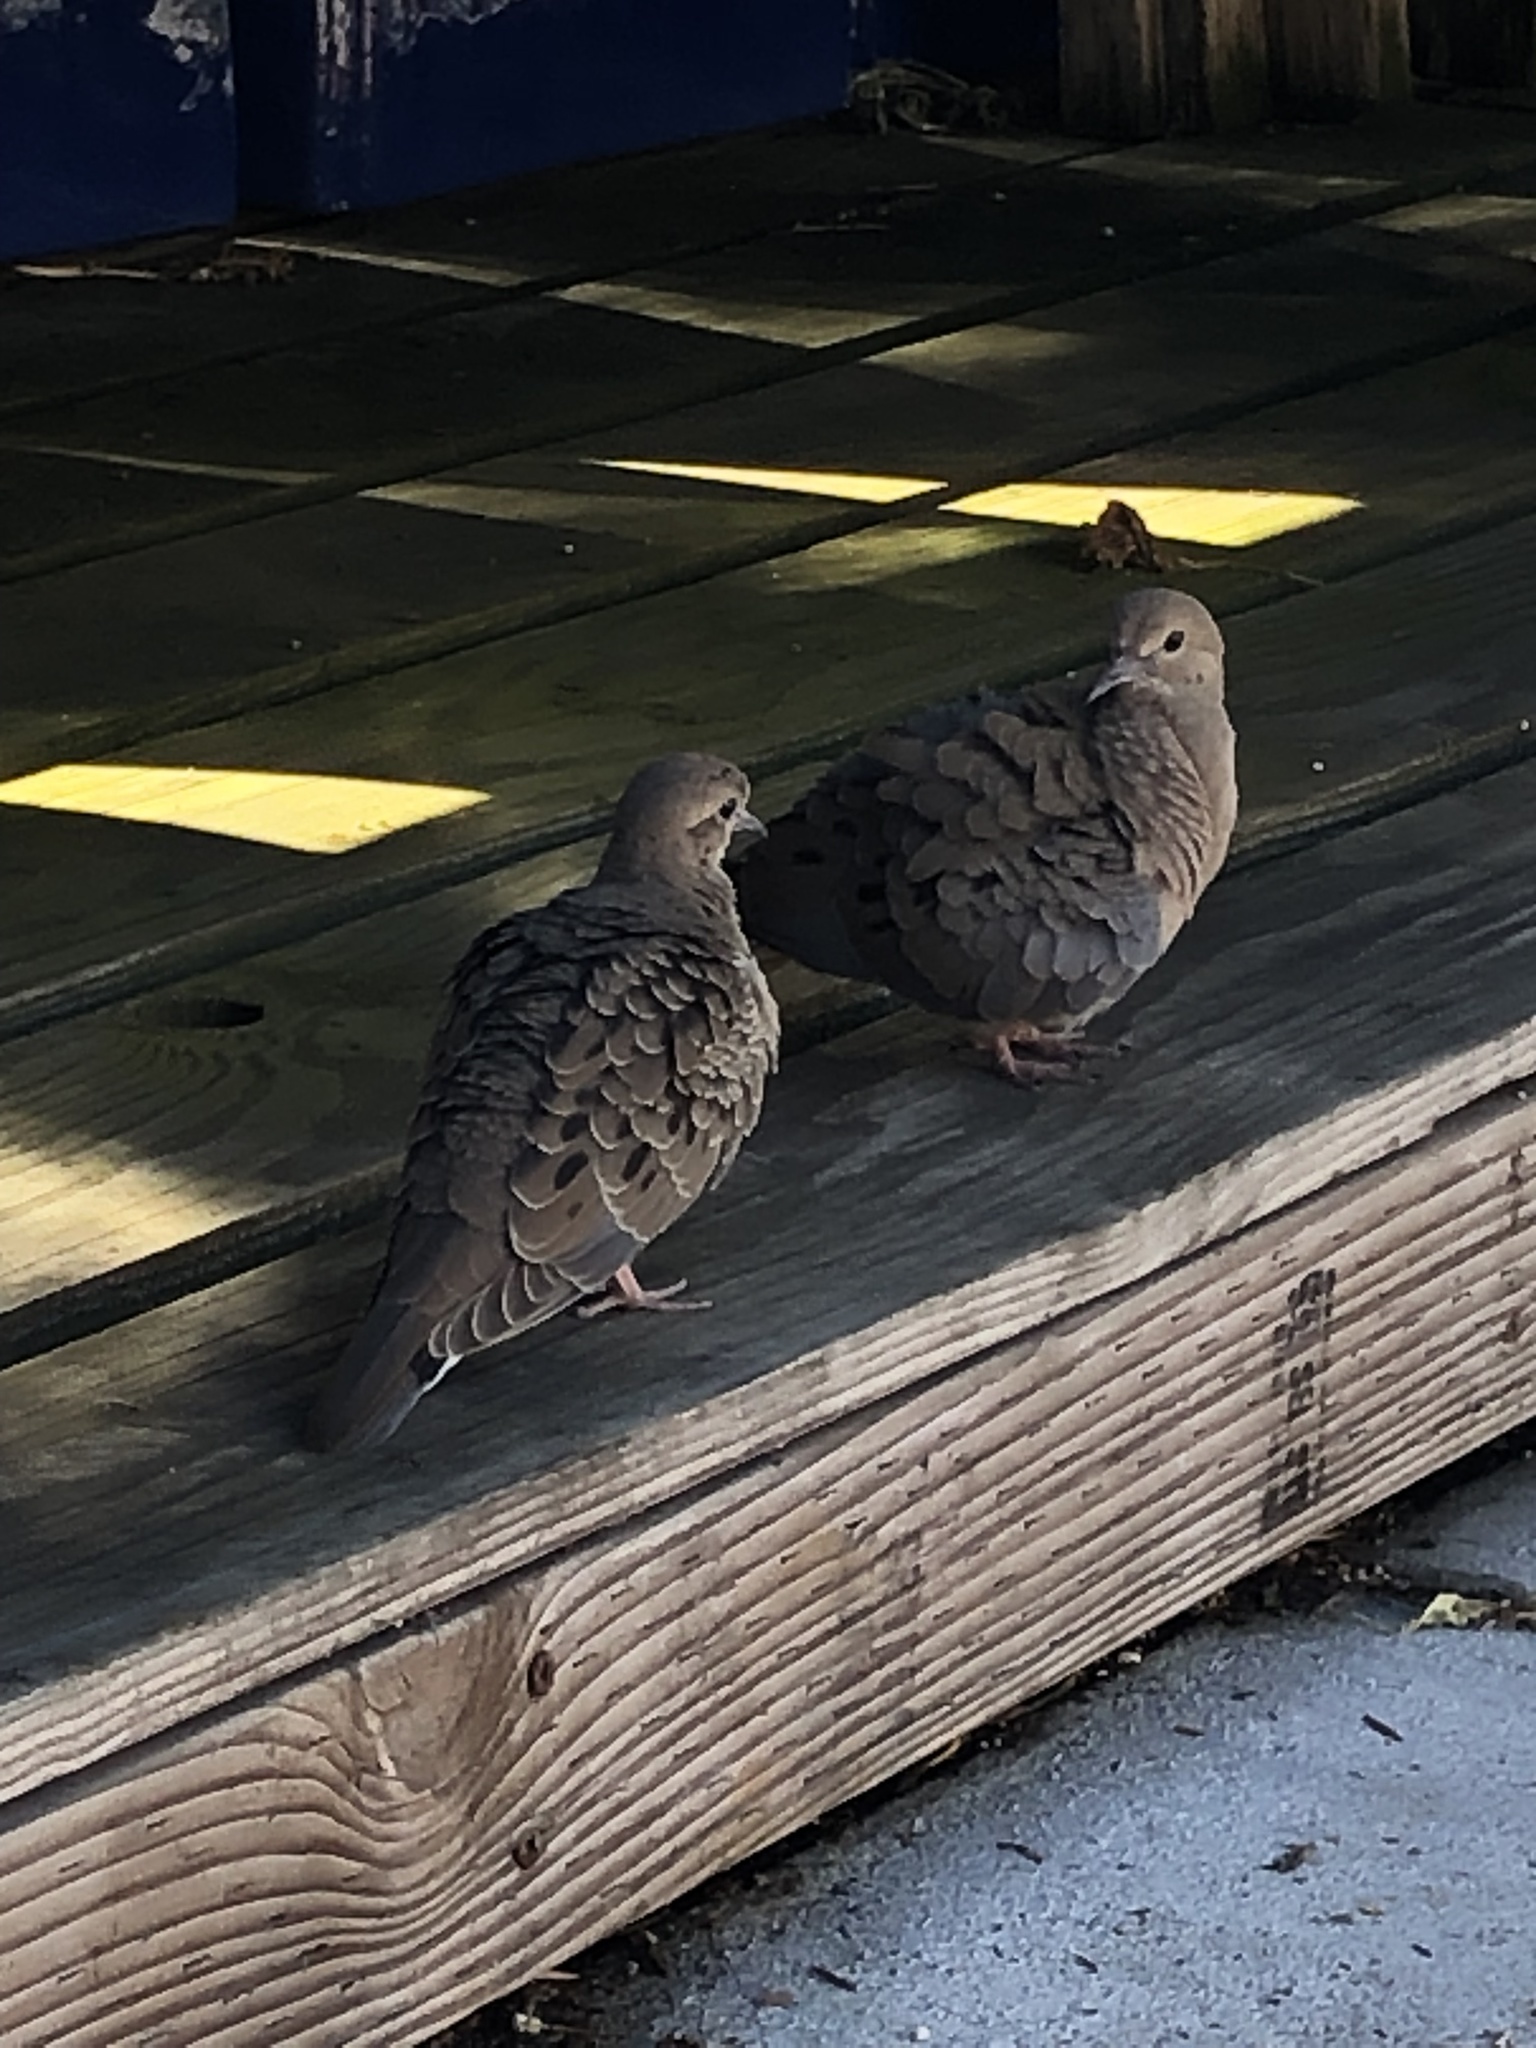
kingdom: Animalia
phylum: Chordata
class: Aves
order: Columbiformes
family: Columbidae
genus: Zenaida
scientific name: Zenaida macroura
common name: Mourning dove
